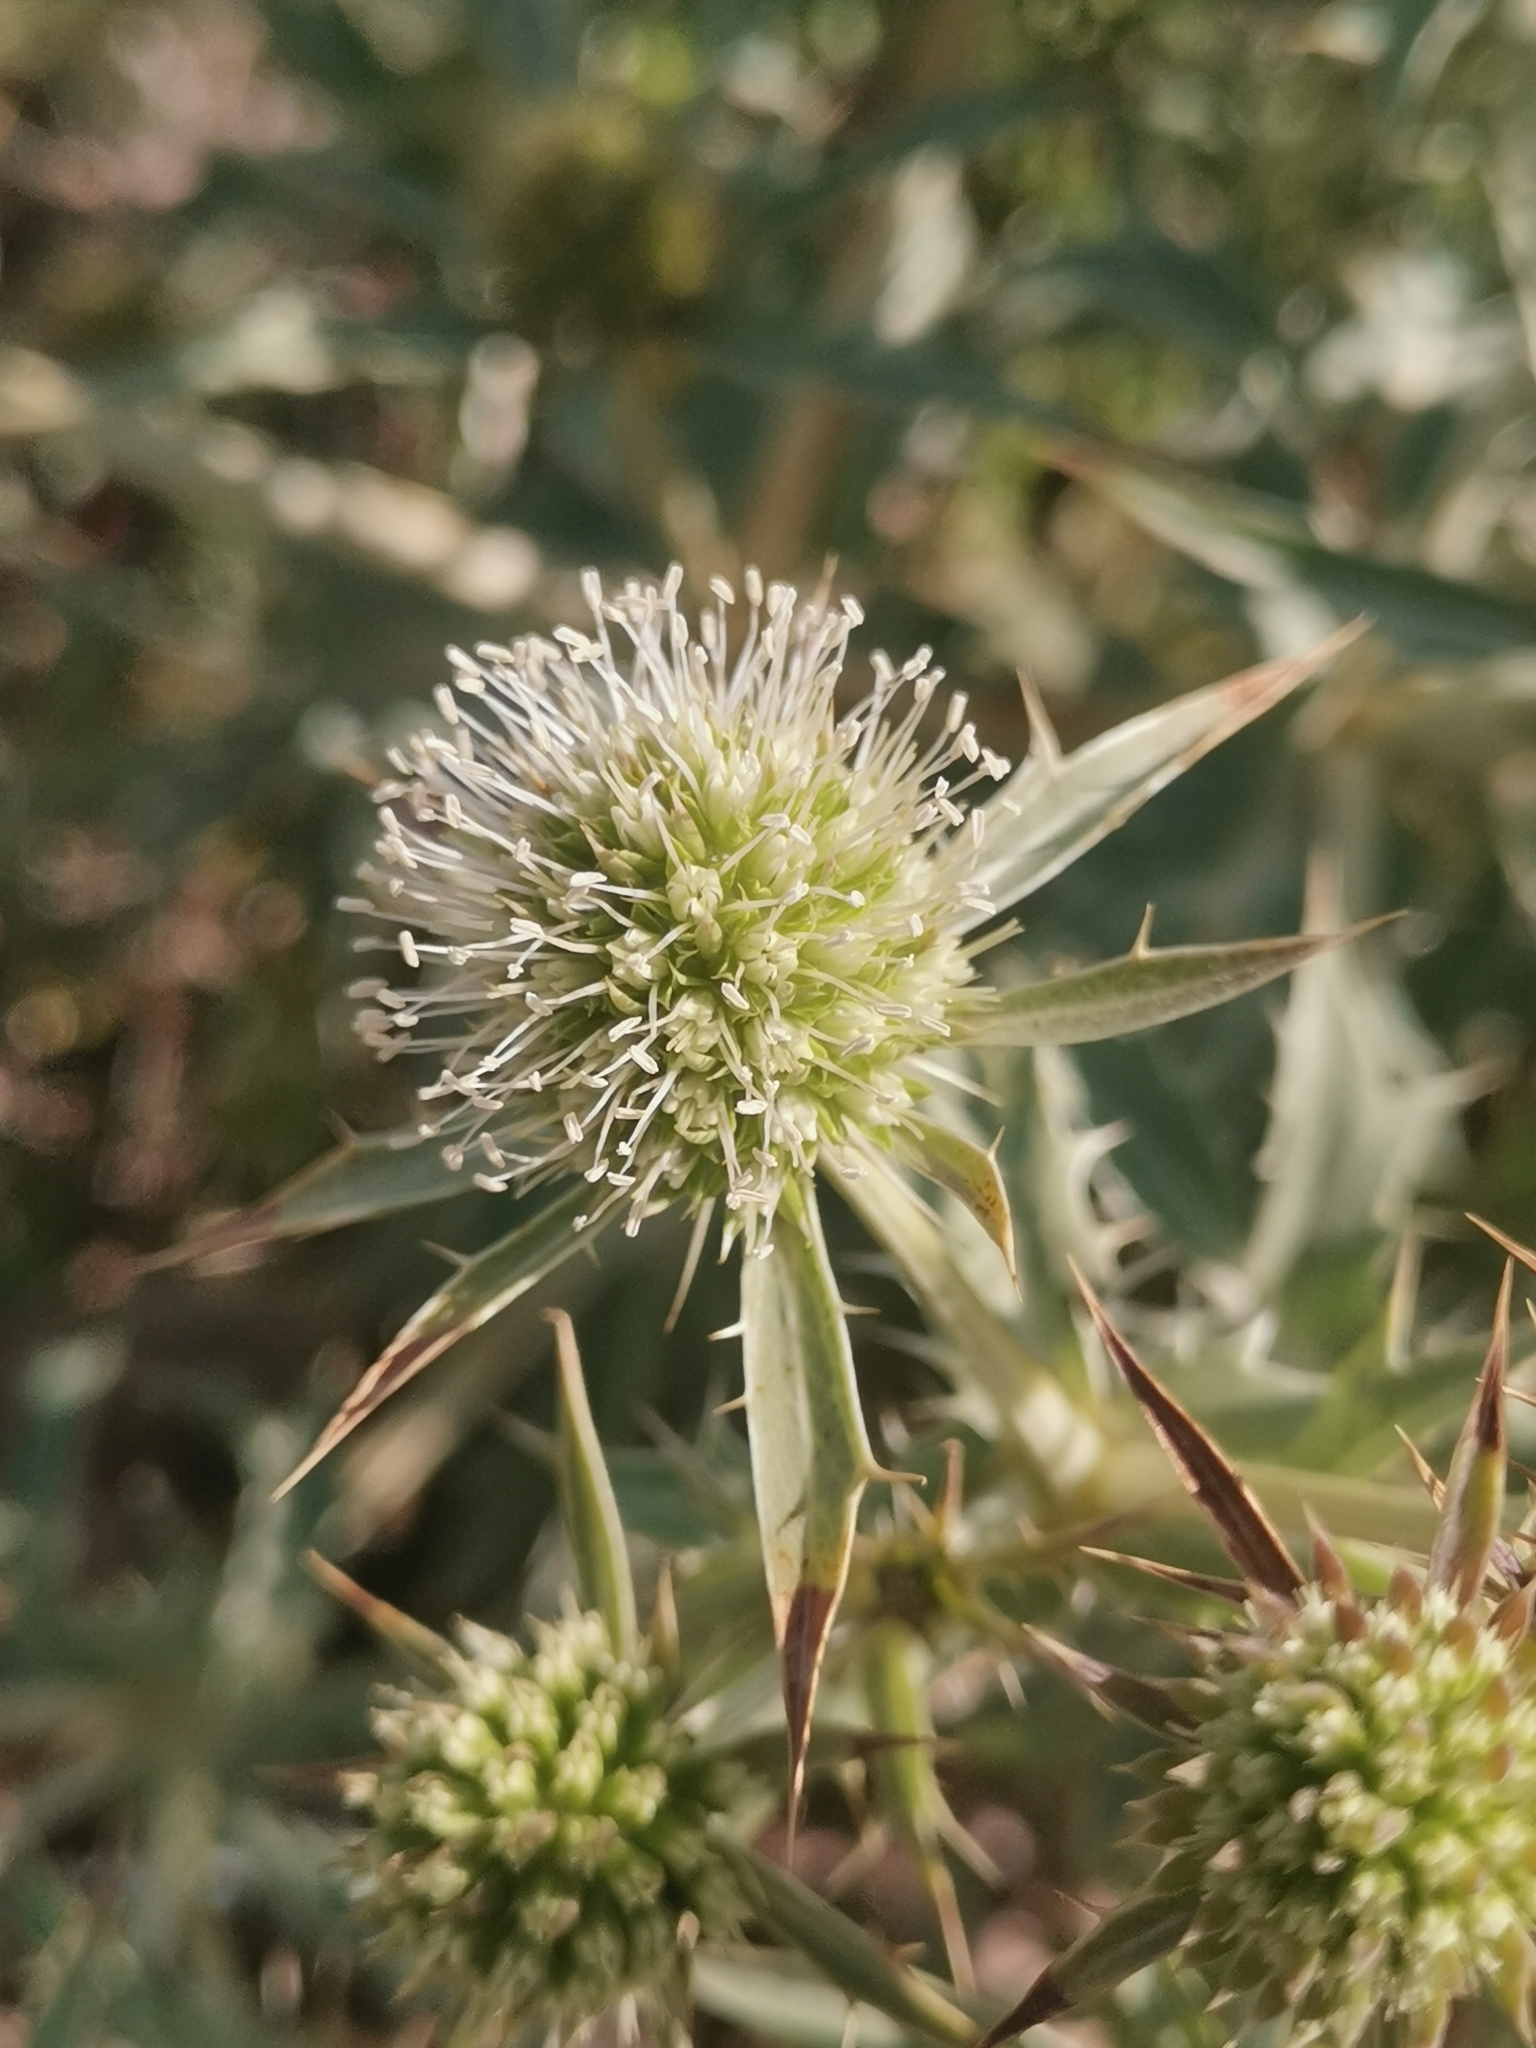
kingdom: Plantae
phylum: Tracheophyta
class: Magnoliopsida
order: Apiales
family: Apiaceae
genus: Eryngium
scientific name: Eryngium campestre
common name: Field eryngo
